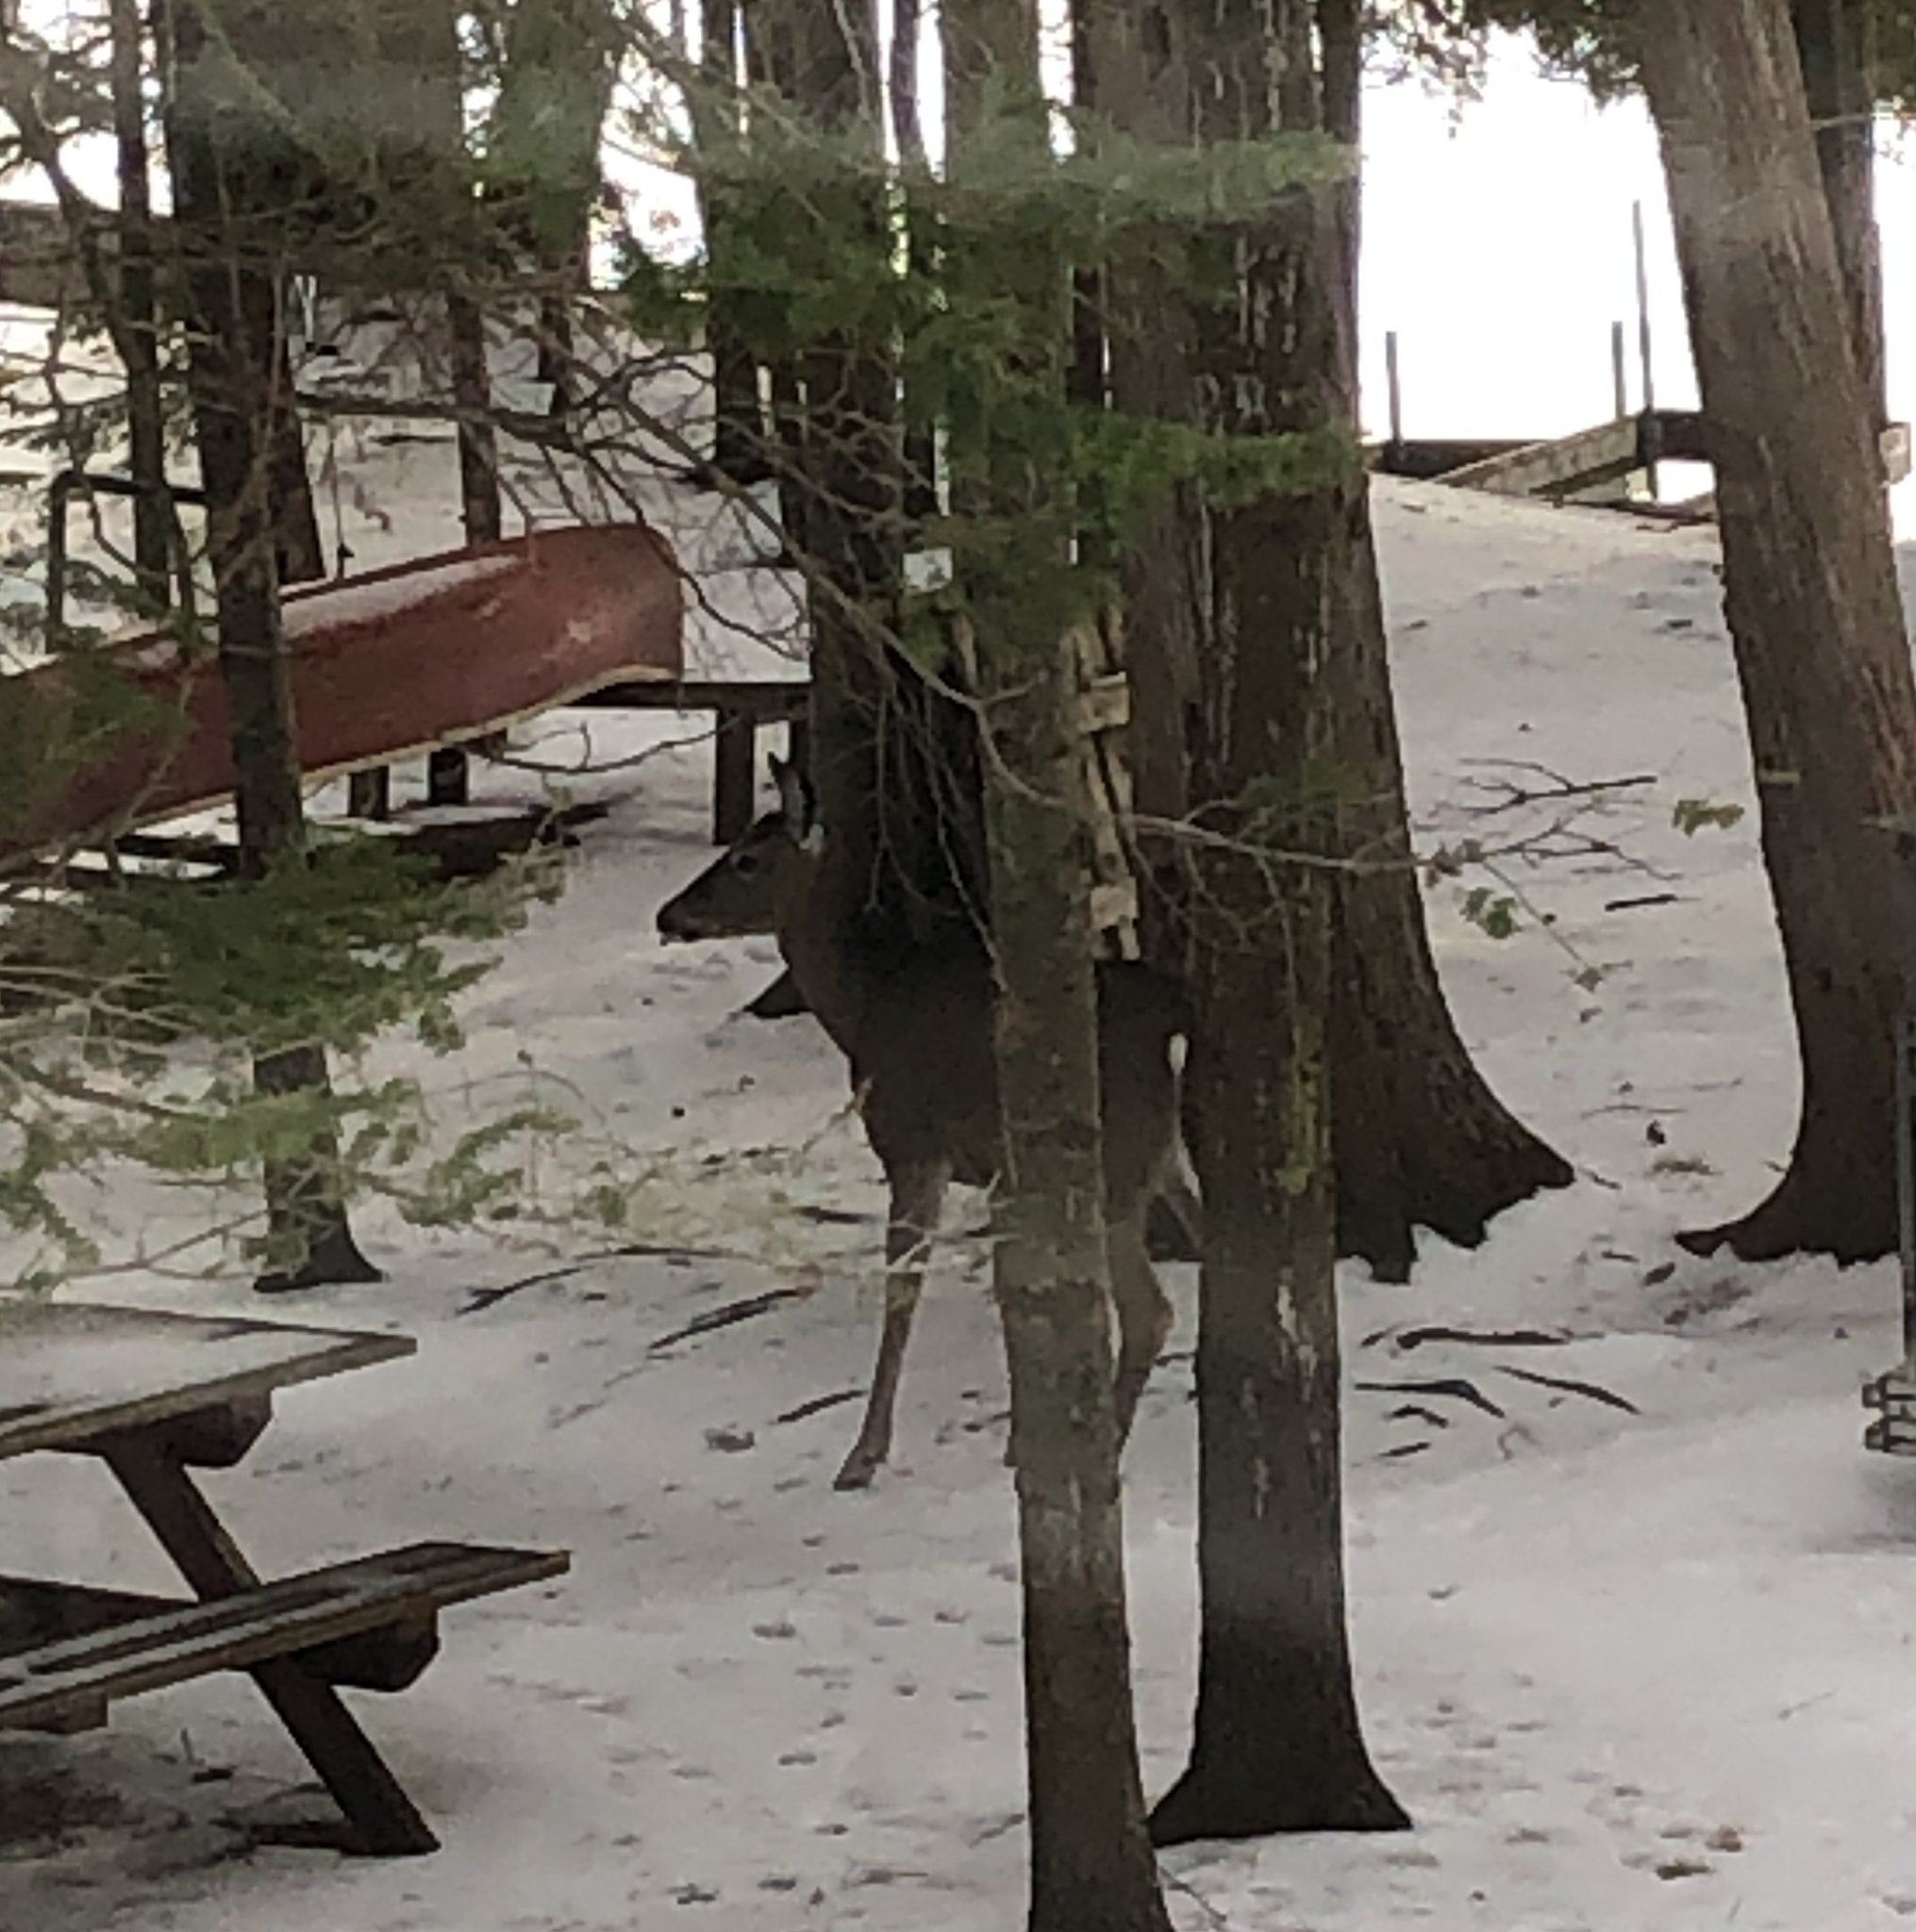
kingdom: Animalia
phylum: Chordata
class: Mammalia
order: Artiodactyla
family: Cervidae
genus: Odocoileus
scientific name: Odocoileus virginianus
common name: White-tailed deer
